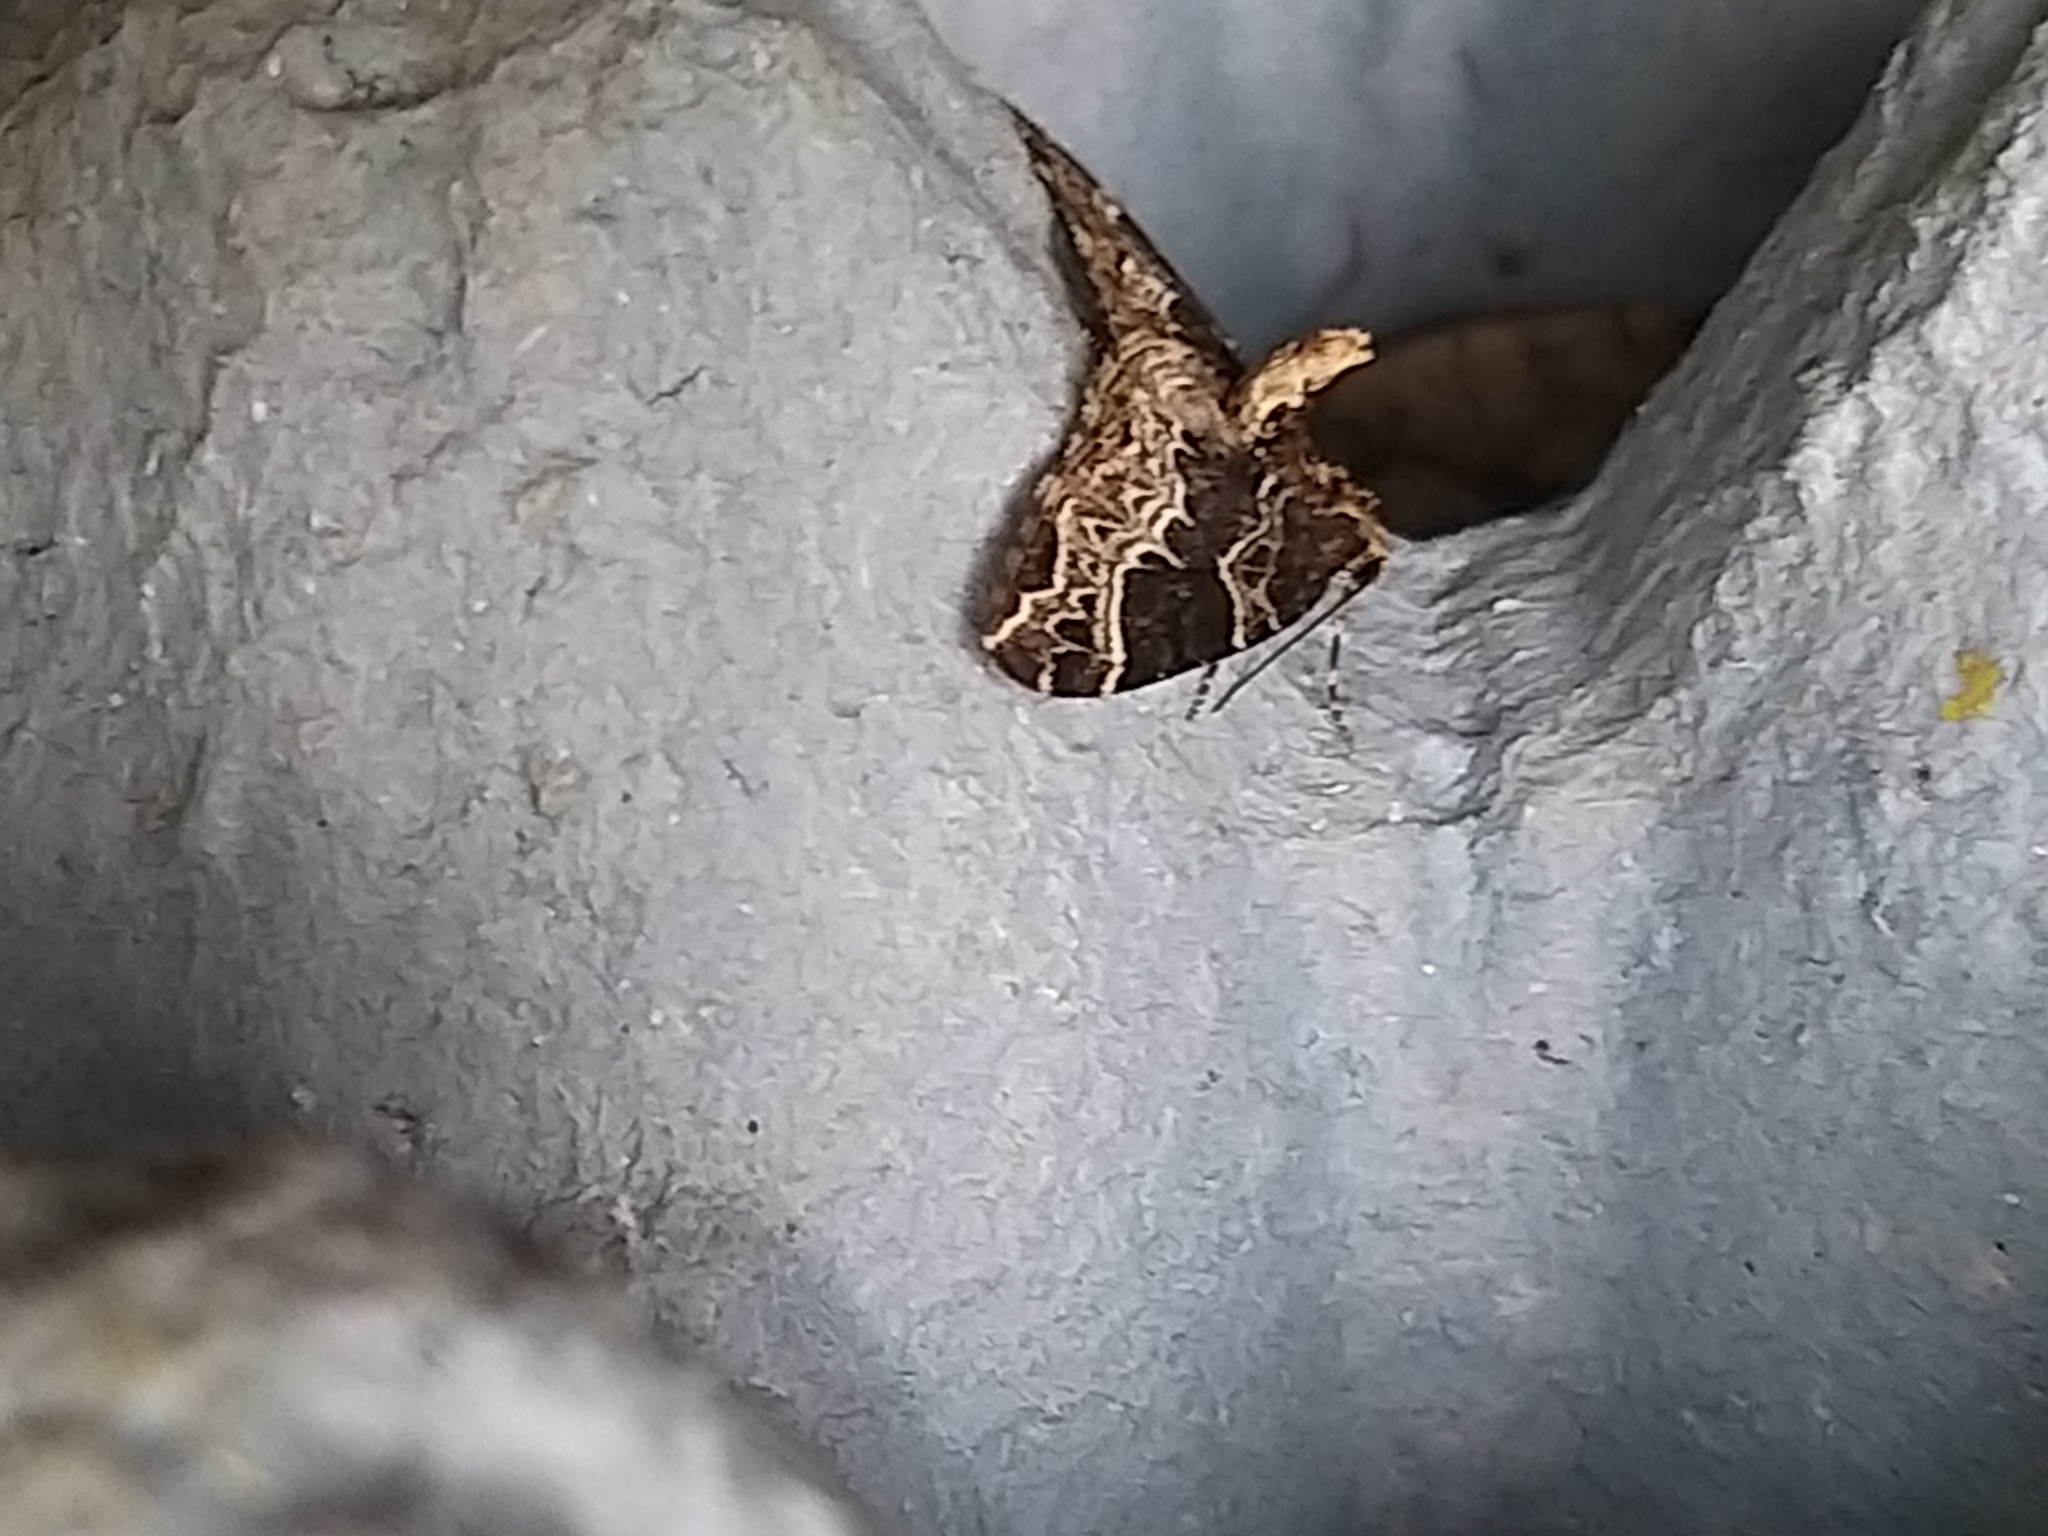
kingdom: Animalia
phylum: Arthropoda
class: Insecta
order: Lepidoptera
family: Geometridae
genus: Ecliptopera
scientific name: Ecliptopera silaceata
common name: Small phoenix
